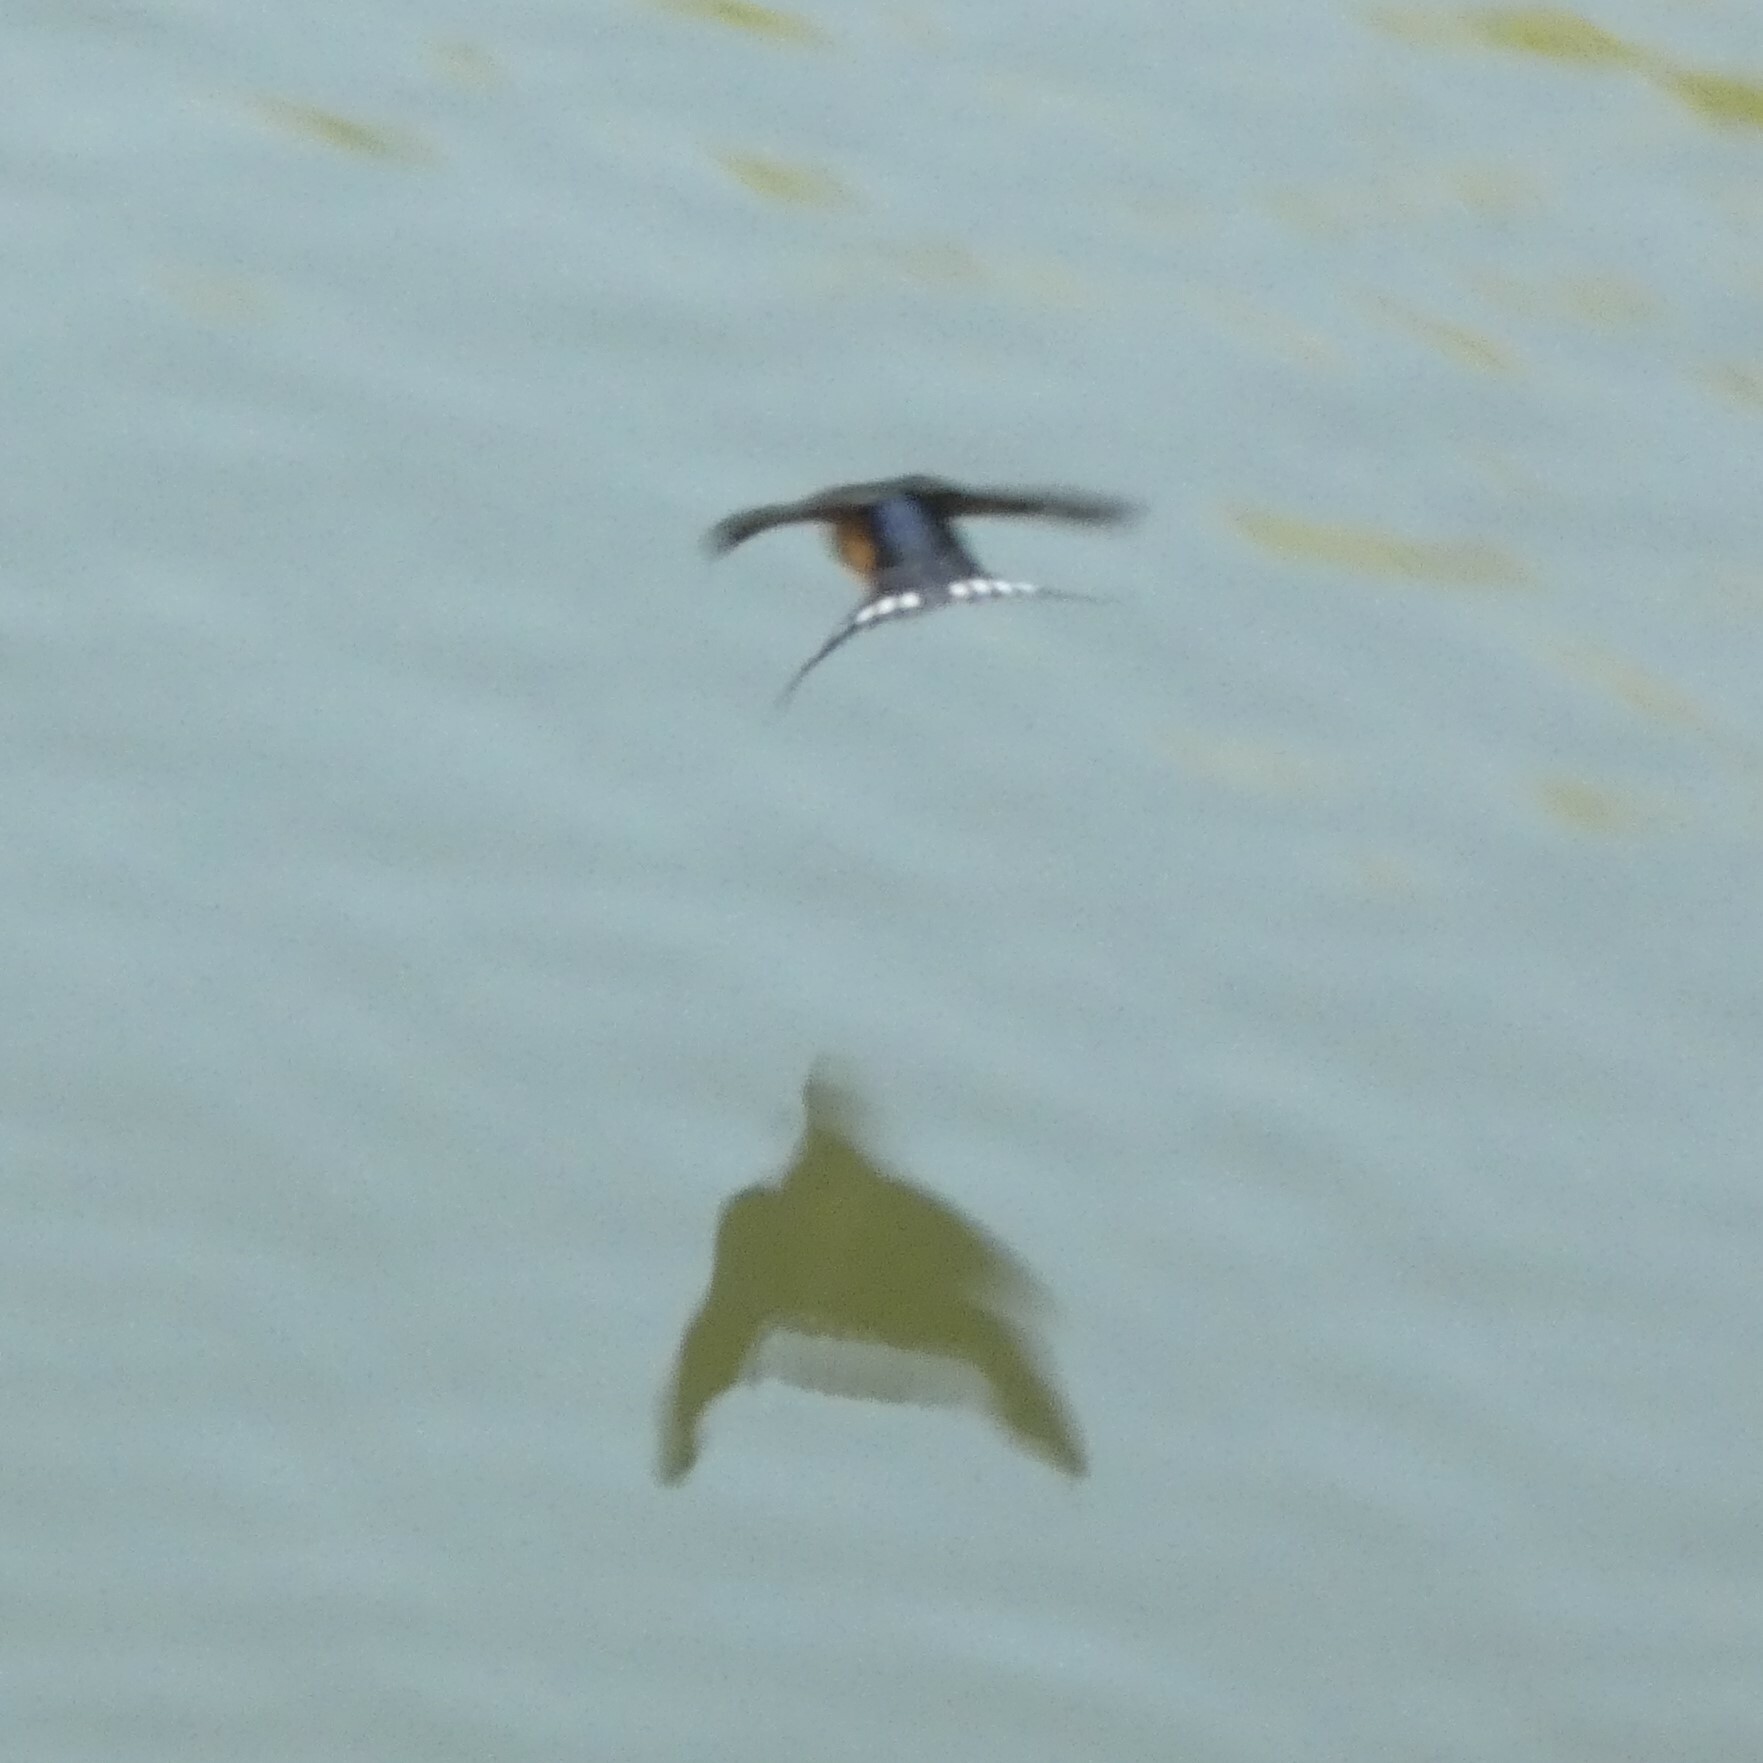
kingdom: Animalia
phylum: Chordata
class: Aves
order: Passeriformes
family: Hirundinidae
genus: Hirundo
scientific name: Hirundo rustica
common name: Barn swallow
